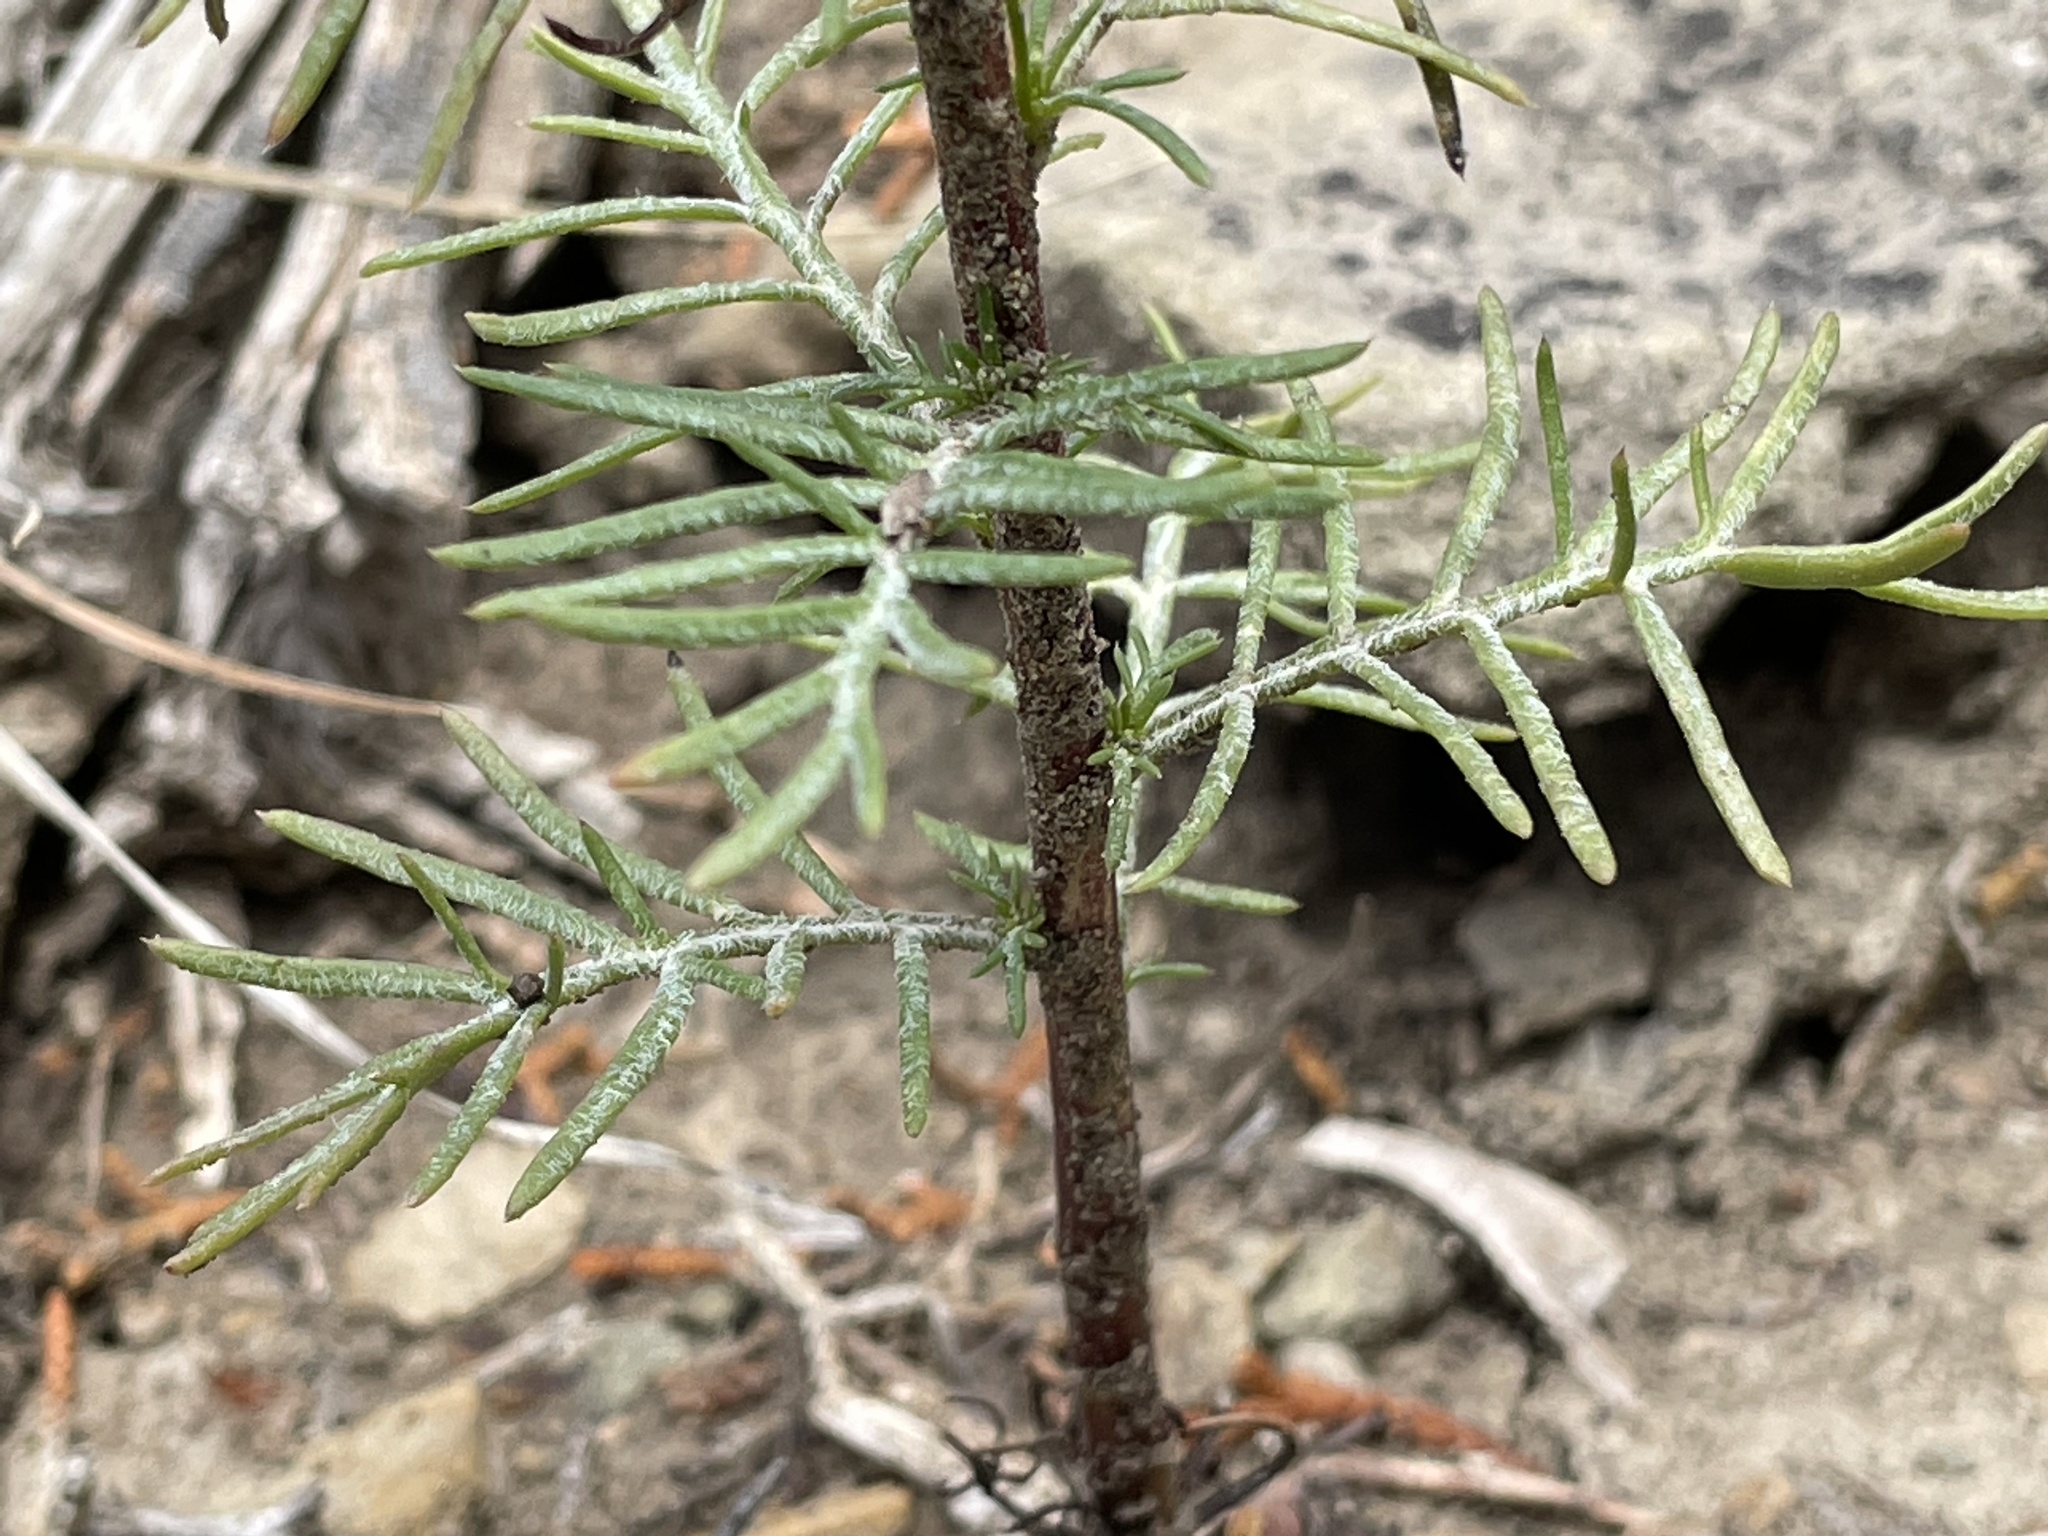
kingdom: Plantae
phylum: Tracheophyta
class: Magnoliopsida
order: Ericales
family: Polemoniaceae
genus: Ipomopsis
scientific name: Ipomopsis aggregata
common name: Scarlet gilia
